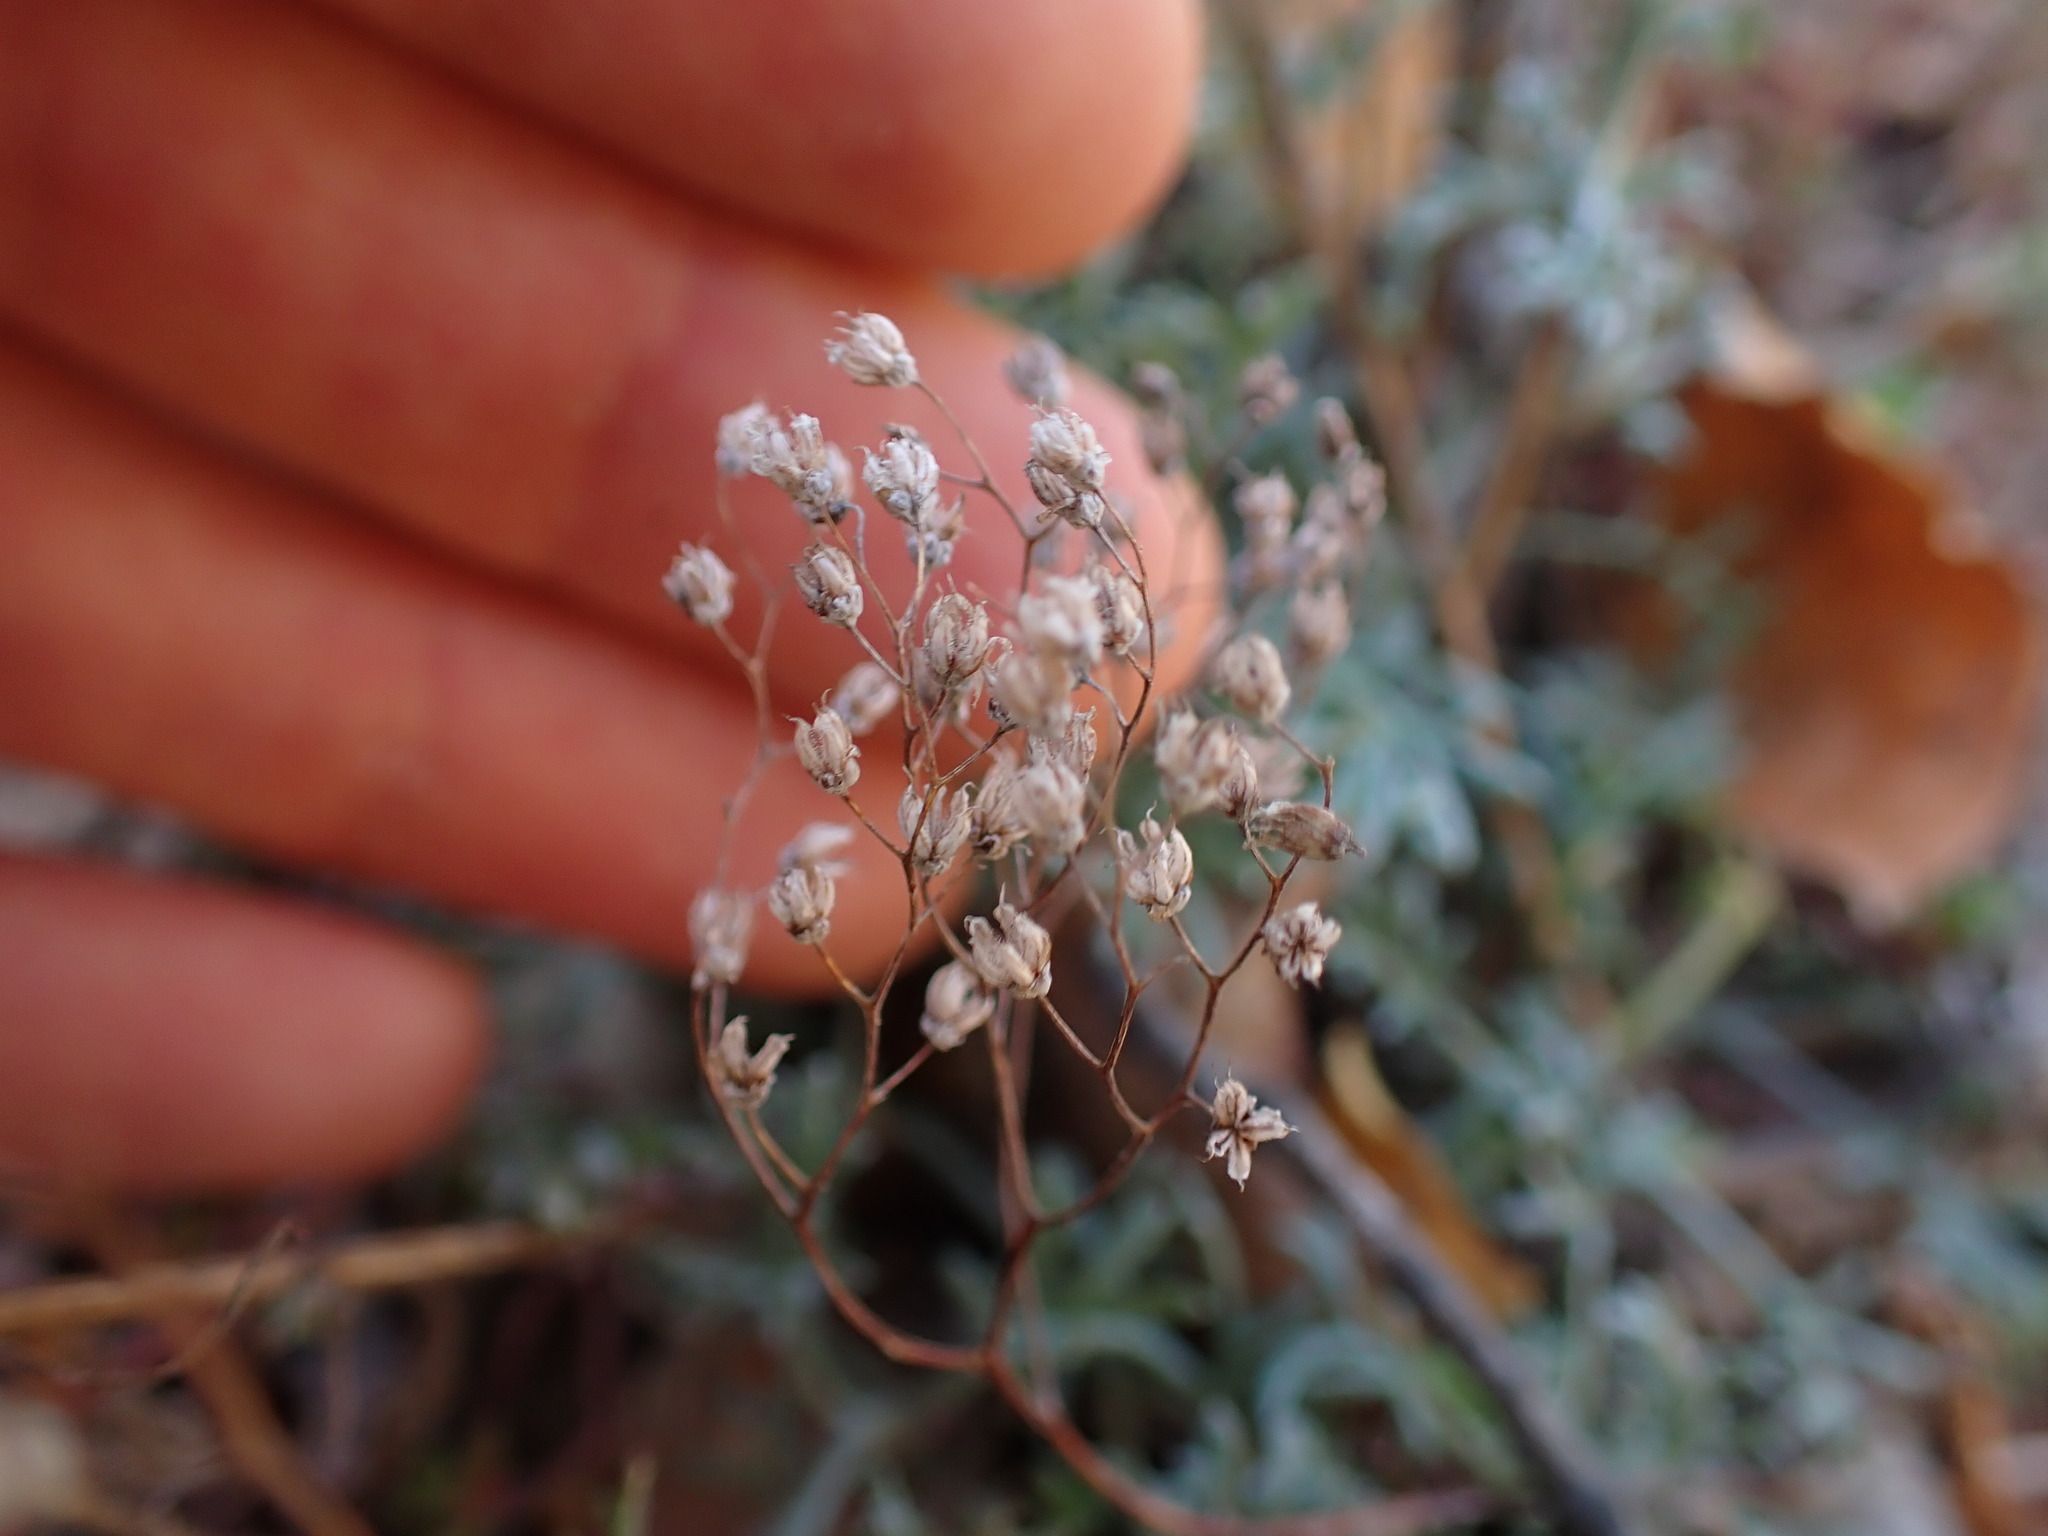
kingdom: Plantae
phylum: Tracheophyta
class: Magnoliopsida
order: Saxifragales
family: Crassulaceae
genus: Sedum
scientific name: Sedum album
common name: White stonecrop
